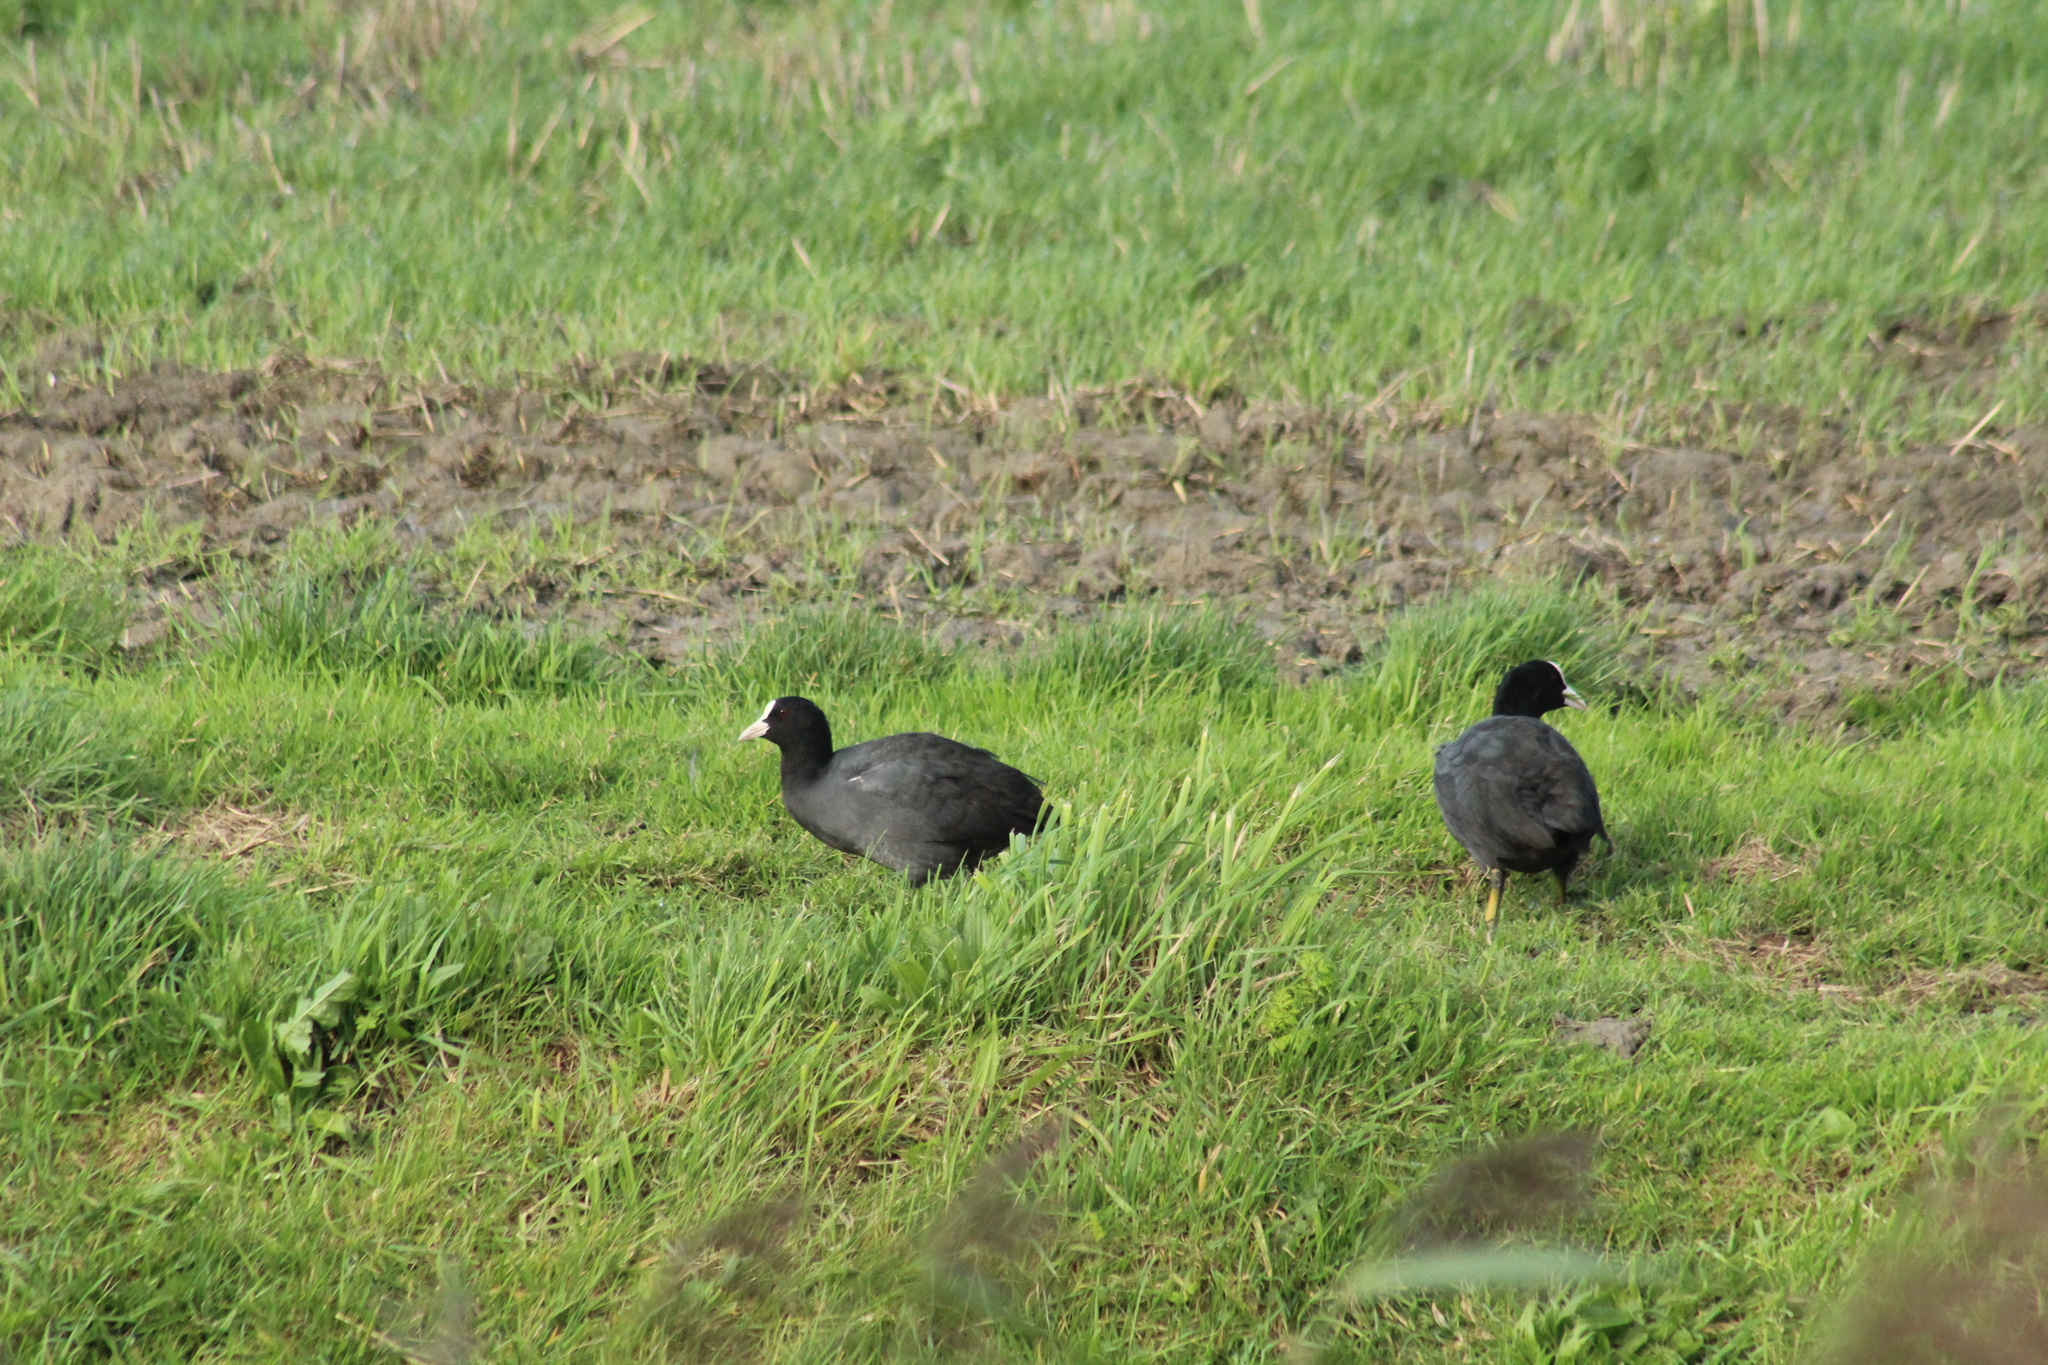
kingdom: Animalia
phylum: Chordata
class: Aves
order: Gruiformes
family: Rallidae
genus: Fulica
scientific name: Fulica atra
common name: Eurasian coot
